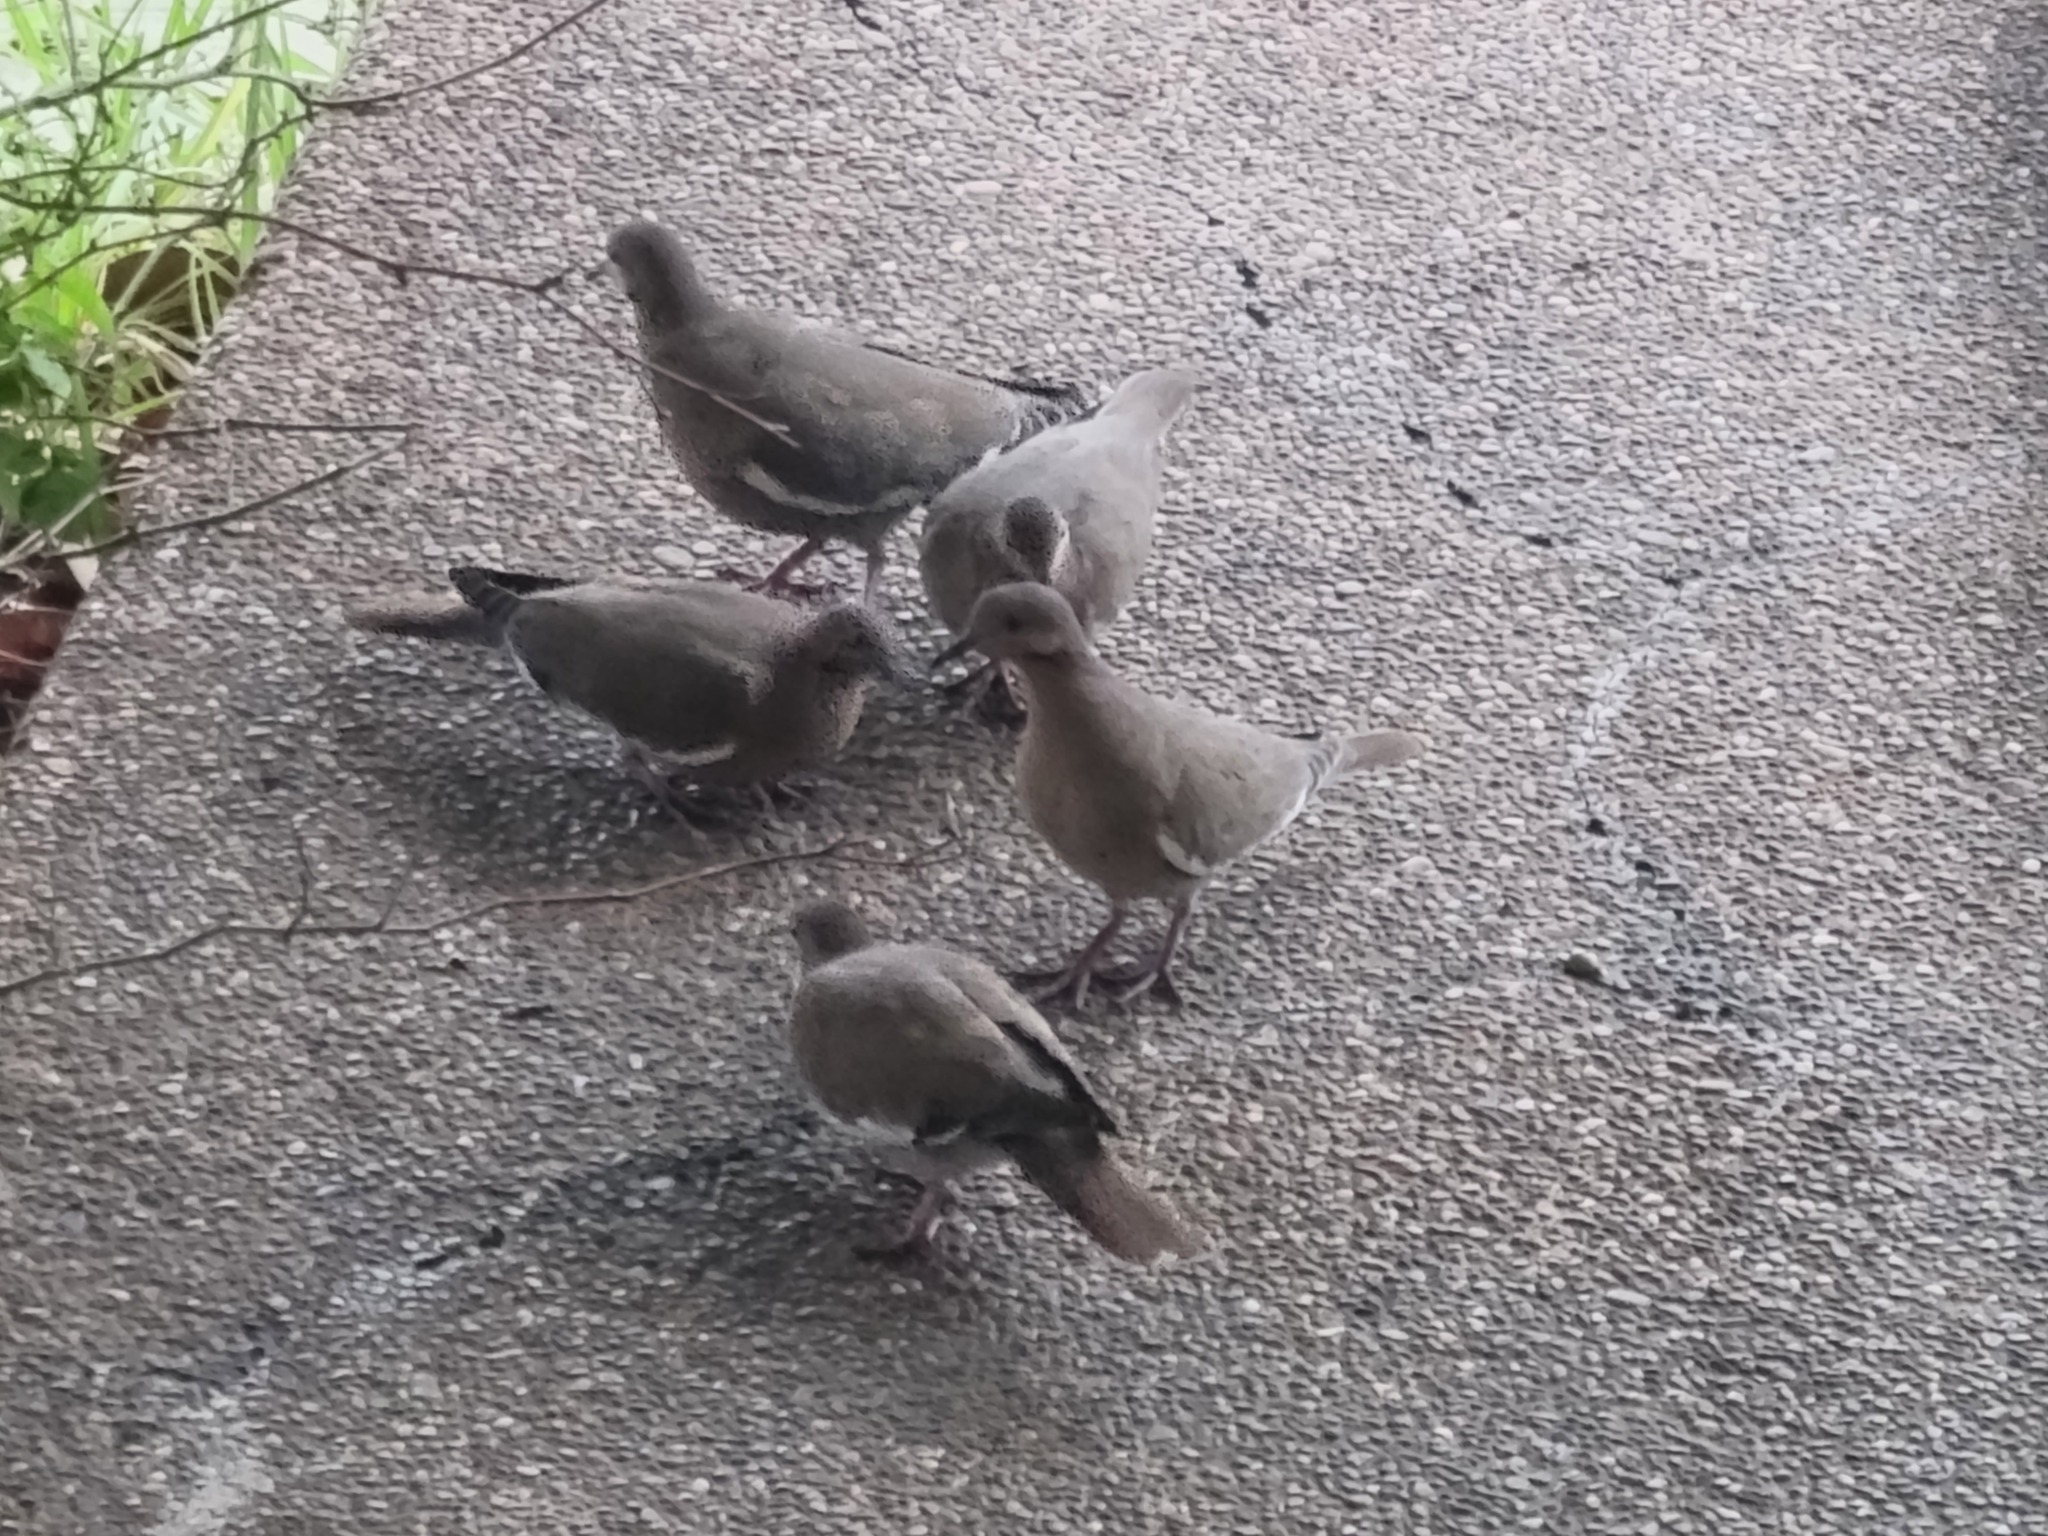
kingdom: Animalia
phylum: Chordata
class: Aves
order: Columbiformes
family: Columbidae
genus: Zenaida
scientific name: Zenaida asiatica
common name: White-winged dove
